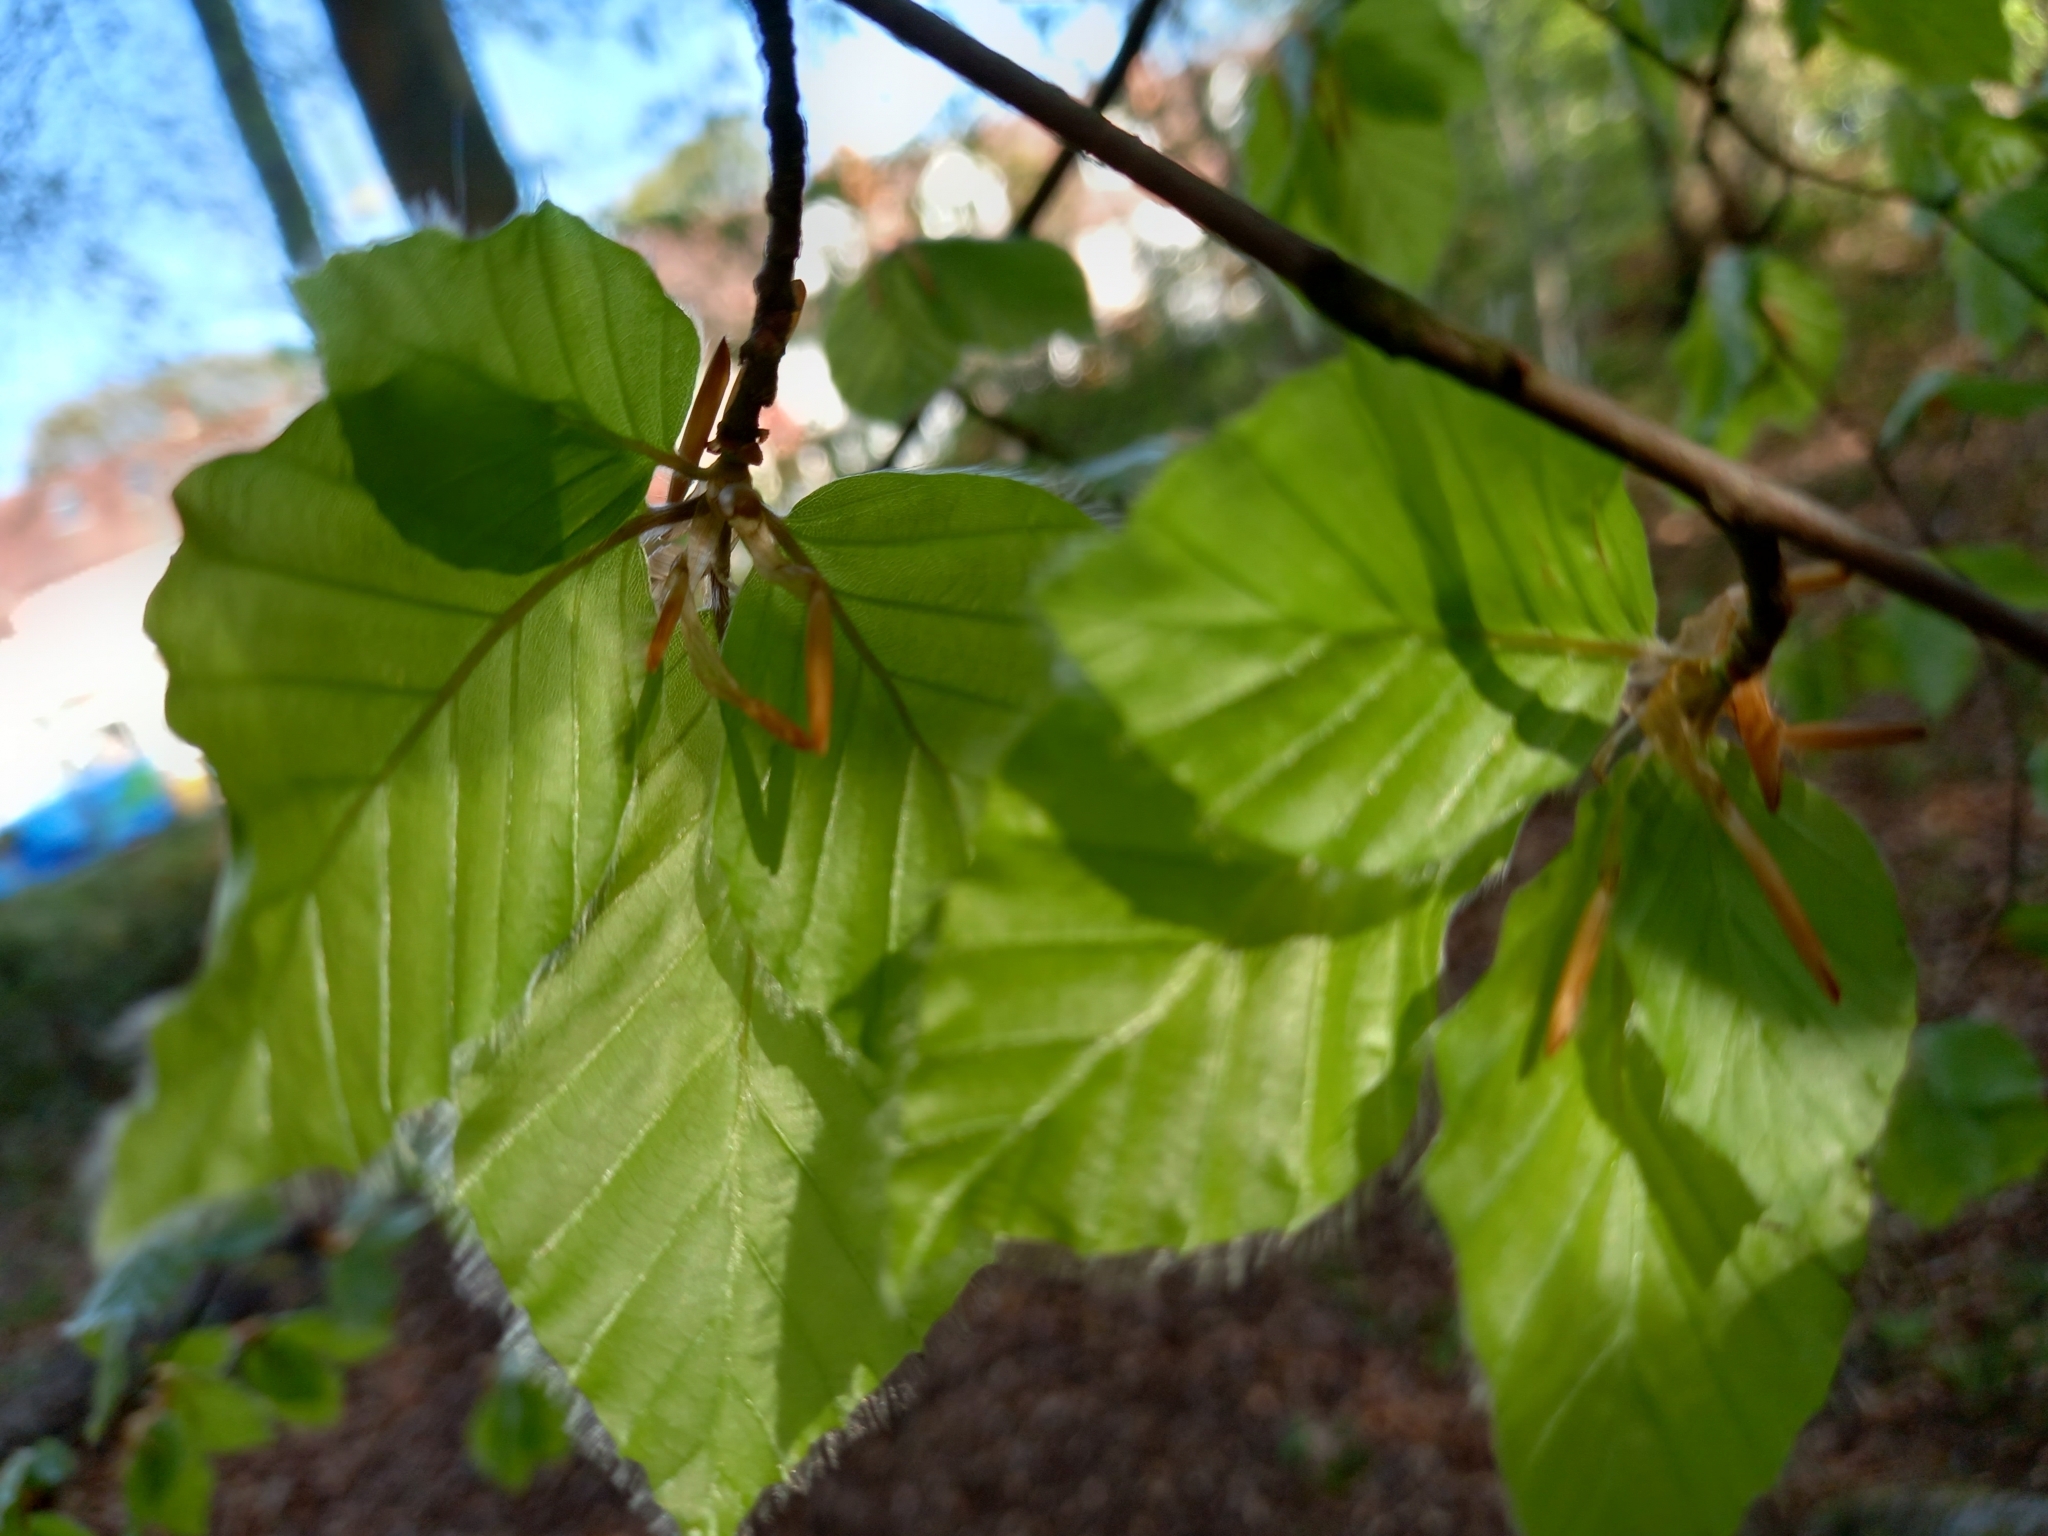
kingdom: Plantae
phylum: Tracheophyta
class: Magnoliopsida
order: Fagales
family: Fagaceae
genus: Fagus
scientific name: Fagus sylvatica
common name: Beech
